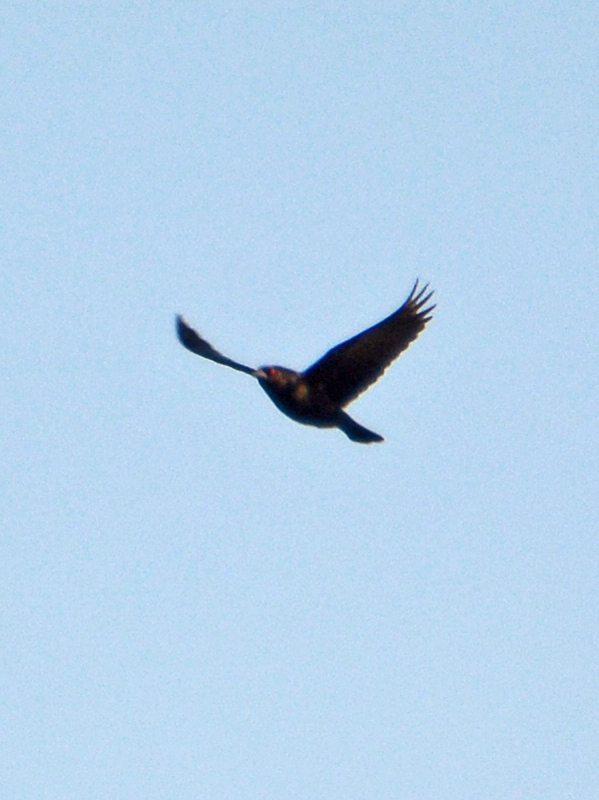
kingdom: Animalia
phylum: Chordata
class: Aves
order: Passeriformes
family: Icteridae
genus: Molothrus
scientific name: Molothrus aeneus
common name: Bronzed cowbird
